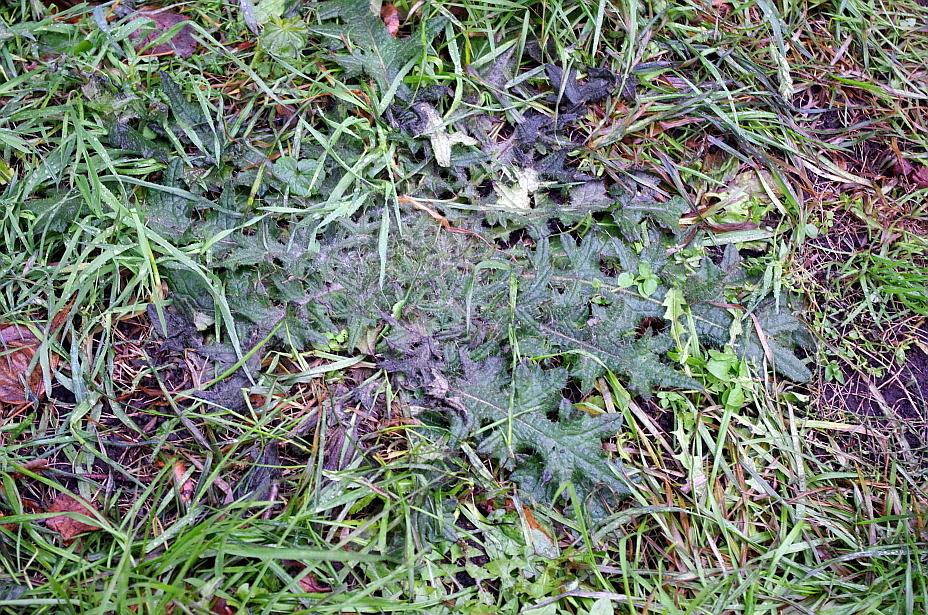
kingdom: Plantae
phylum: Tracheophyta
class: Magnoliopsida
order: Asterales
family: Asteraceae
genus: Cirsium
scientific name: Cirsium vulgare
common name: Bull thistle
